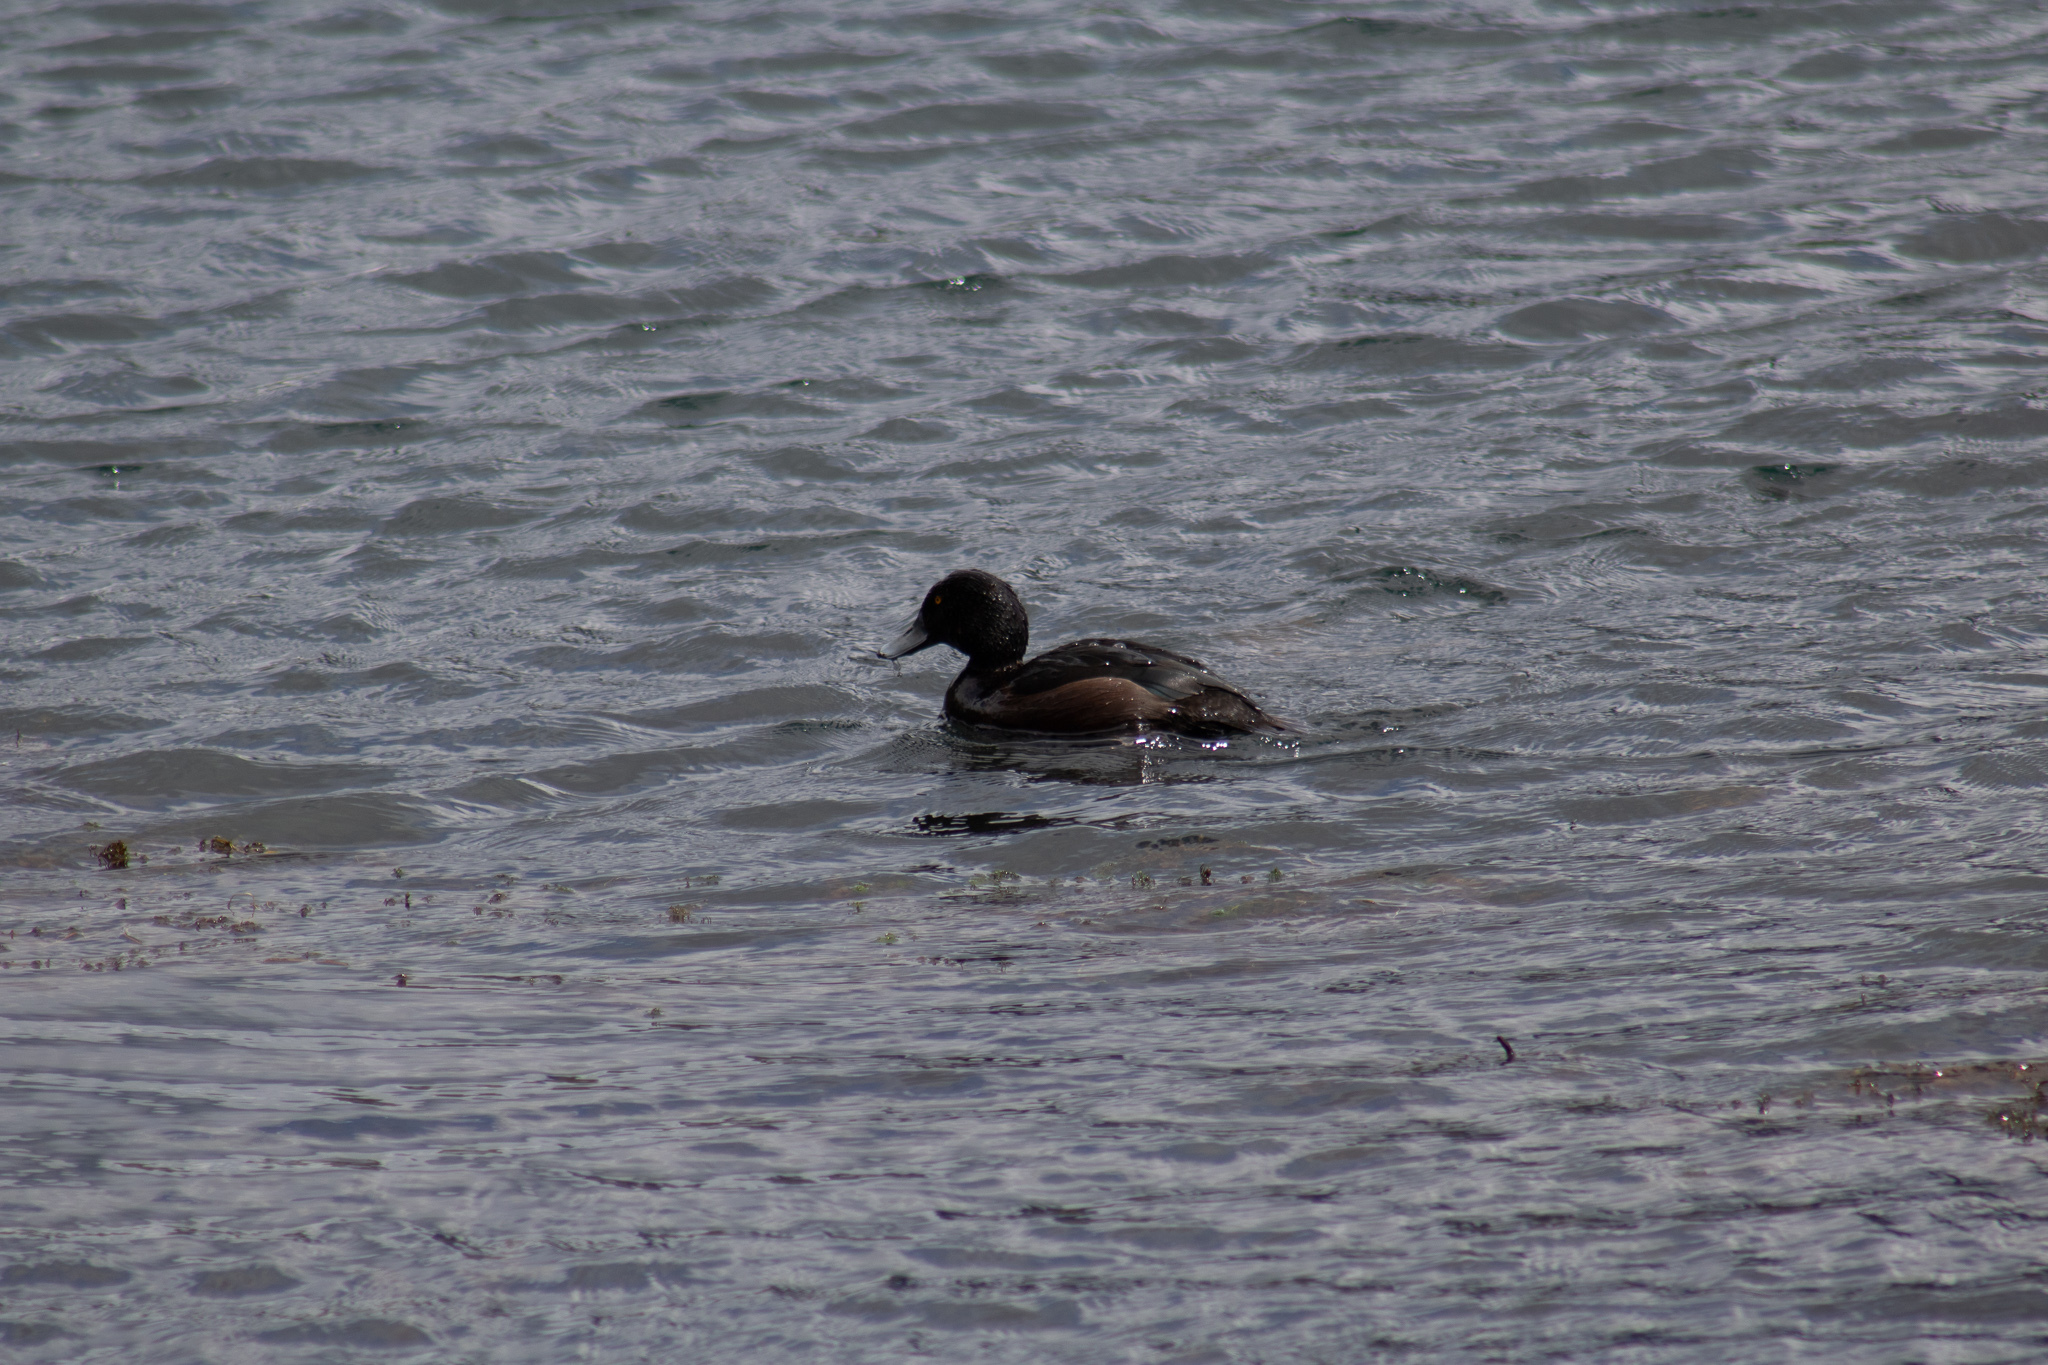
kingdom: Animalia
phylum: Chordata
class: Aves
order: Anseriformes
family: Anatidae
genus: Aythya
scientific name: Aythya novaeseelandiae
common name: New zealand scaup
